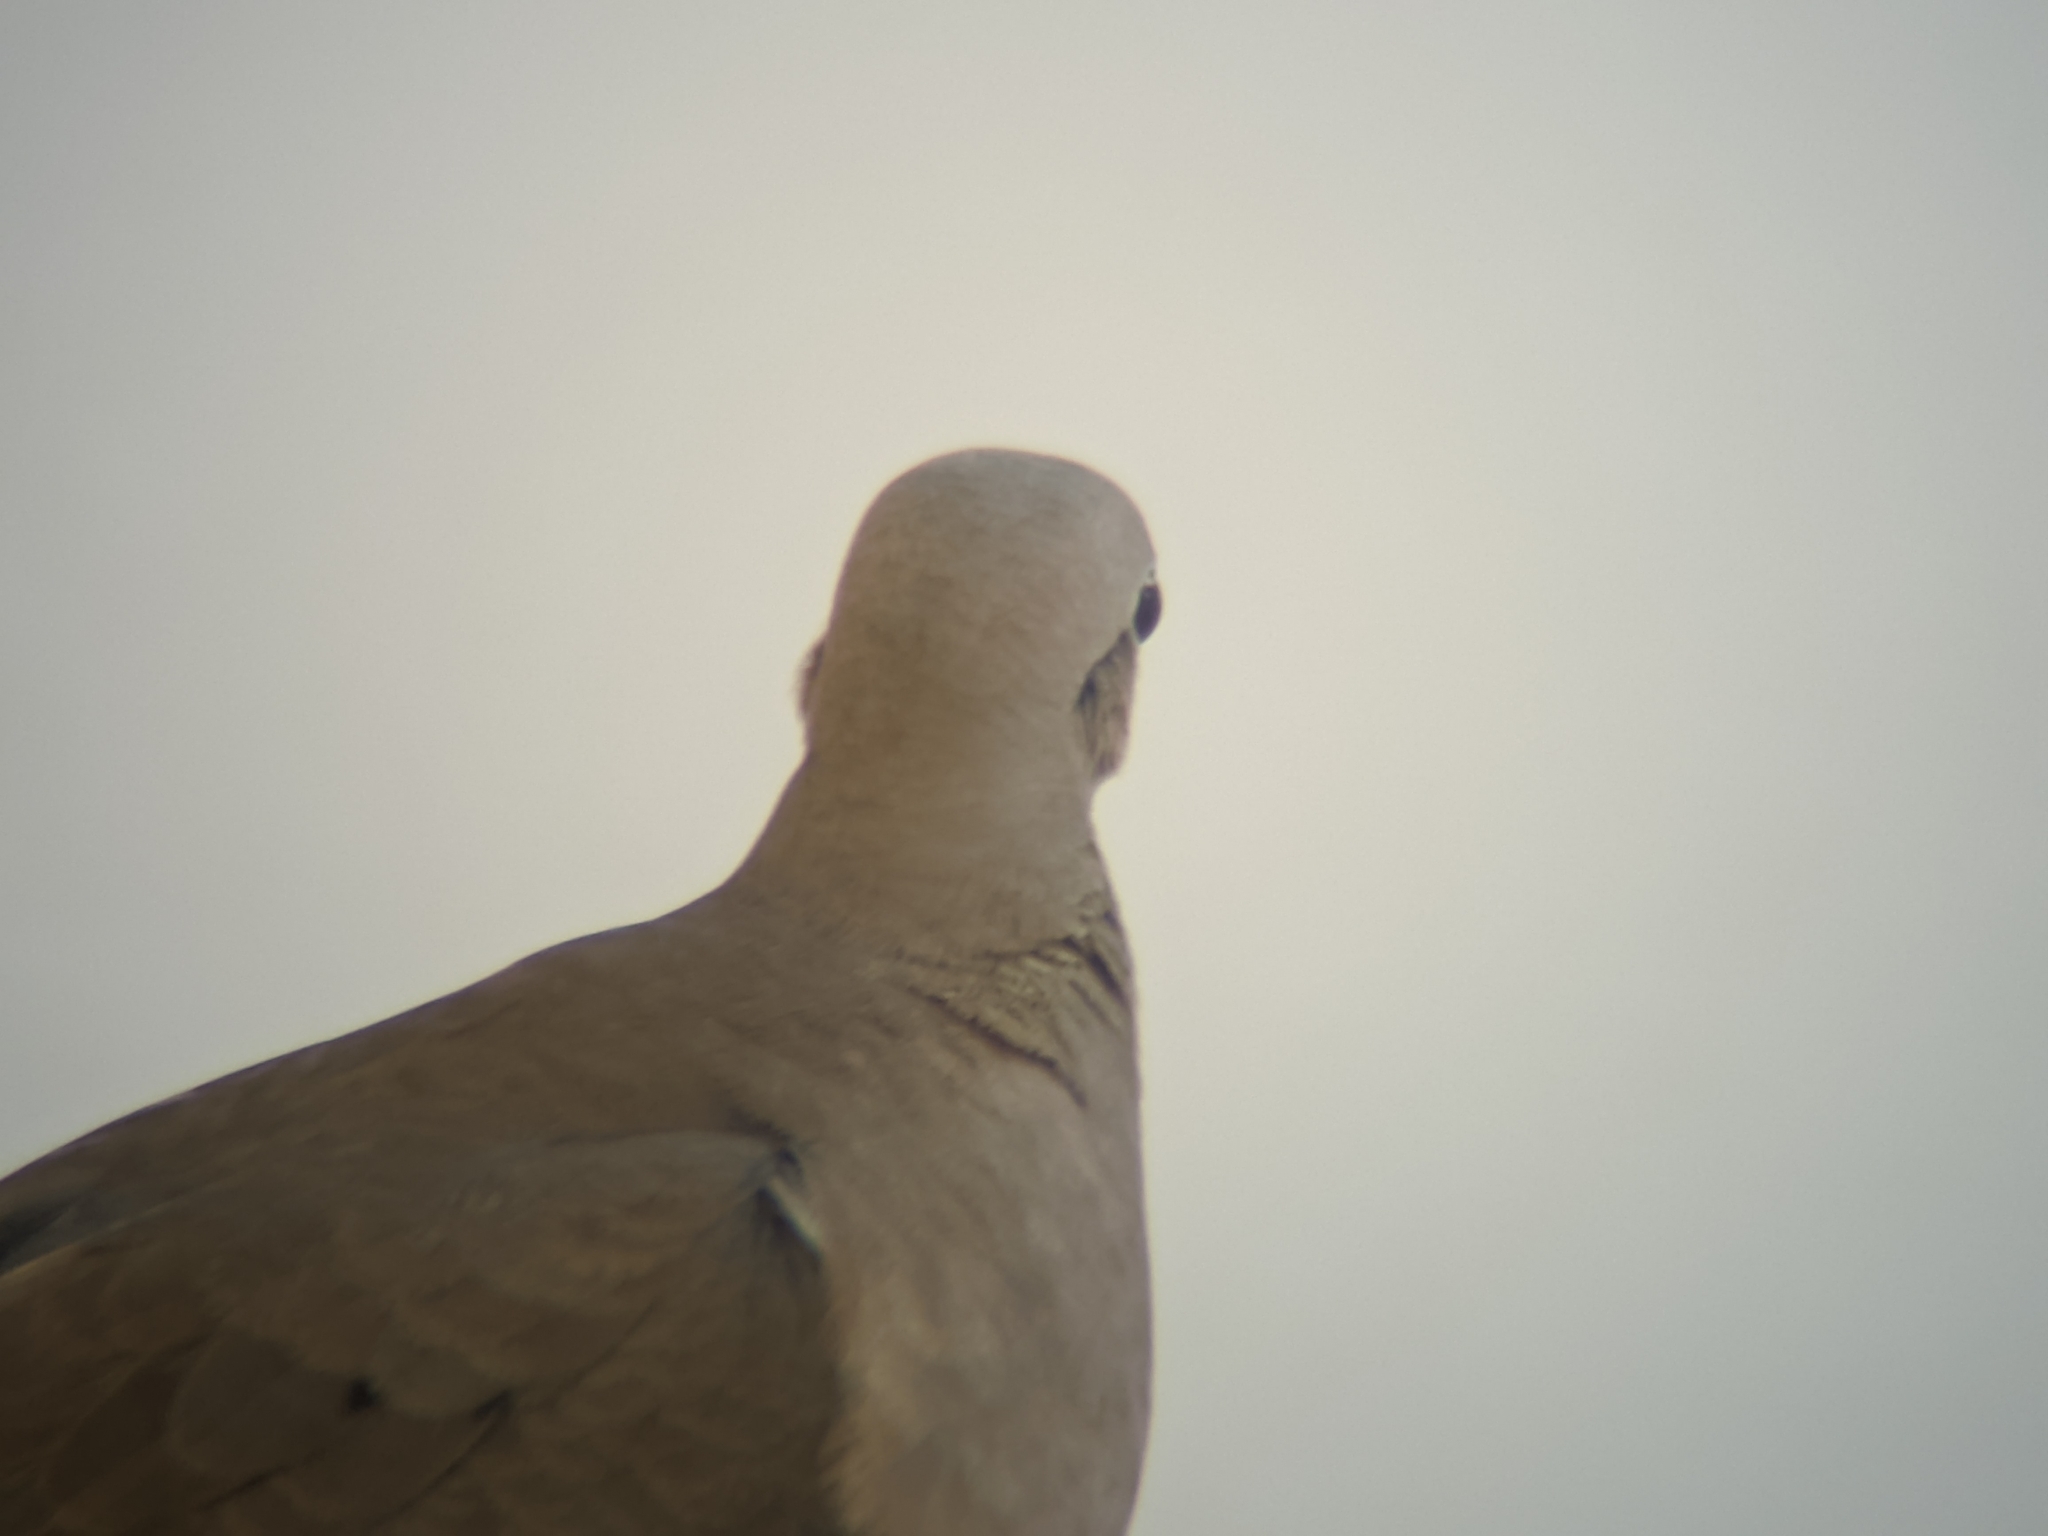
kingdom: Animalia
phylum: Chordata
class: Aves
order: Columbiformes
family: Columbidae
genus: Zenaida
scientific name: Zenaida auriculata
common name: Eared dove
